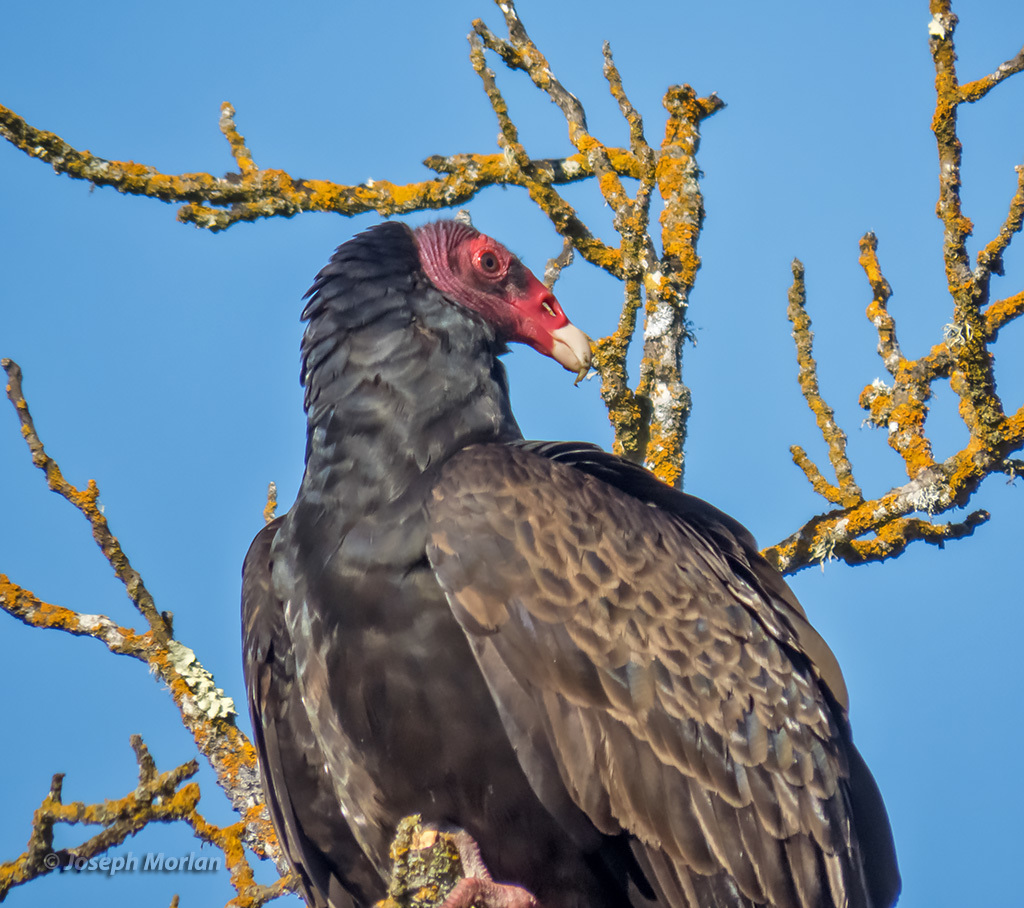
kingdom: Animalia
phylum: Chordata
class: Aves
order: Accipitriformes
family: Cathartidae
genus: Cathartes
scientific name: Cathartes aura
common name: Turkey vulture
